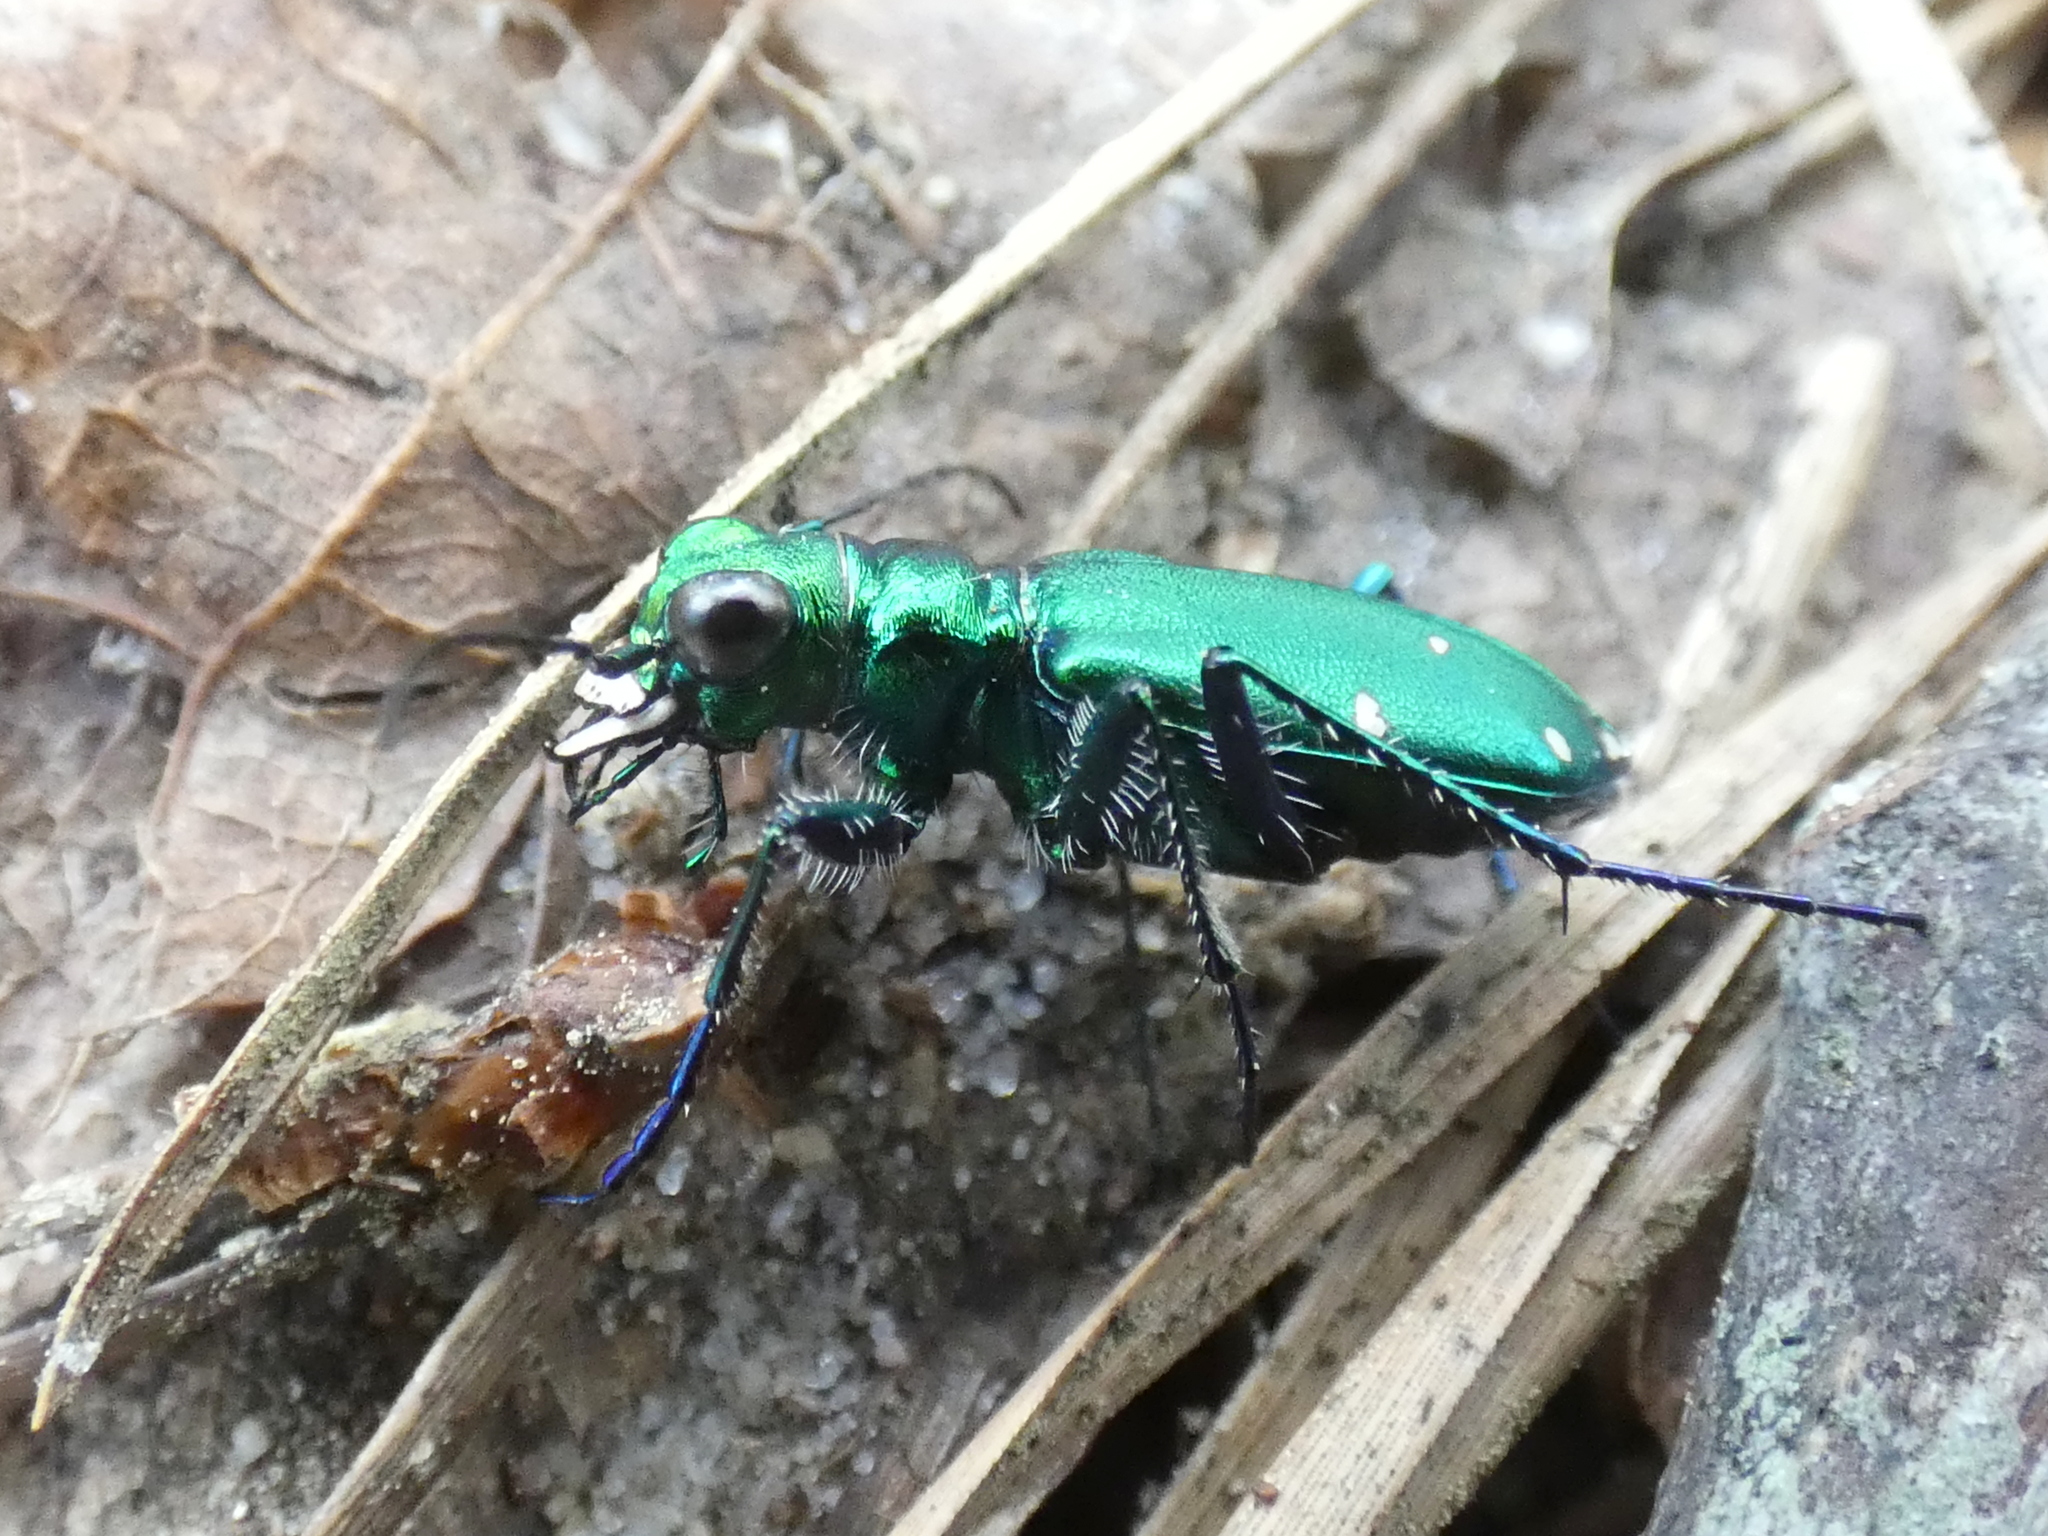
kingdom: Animalia
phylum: Arthropoda
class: Insecta
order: Coleoptera
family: Carabidae
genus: Cicindela
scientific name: Cicindela sexguttata
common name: Six-spotted tiger beetle
